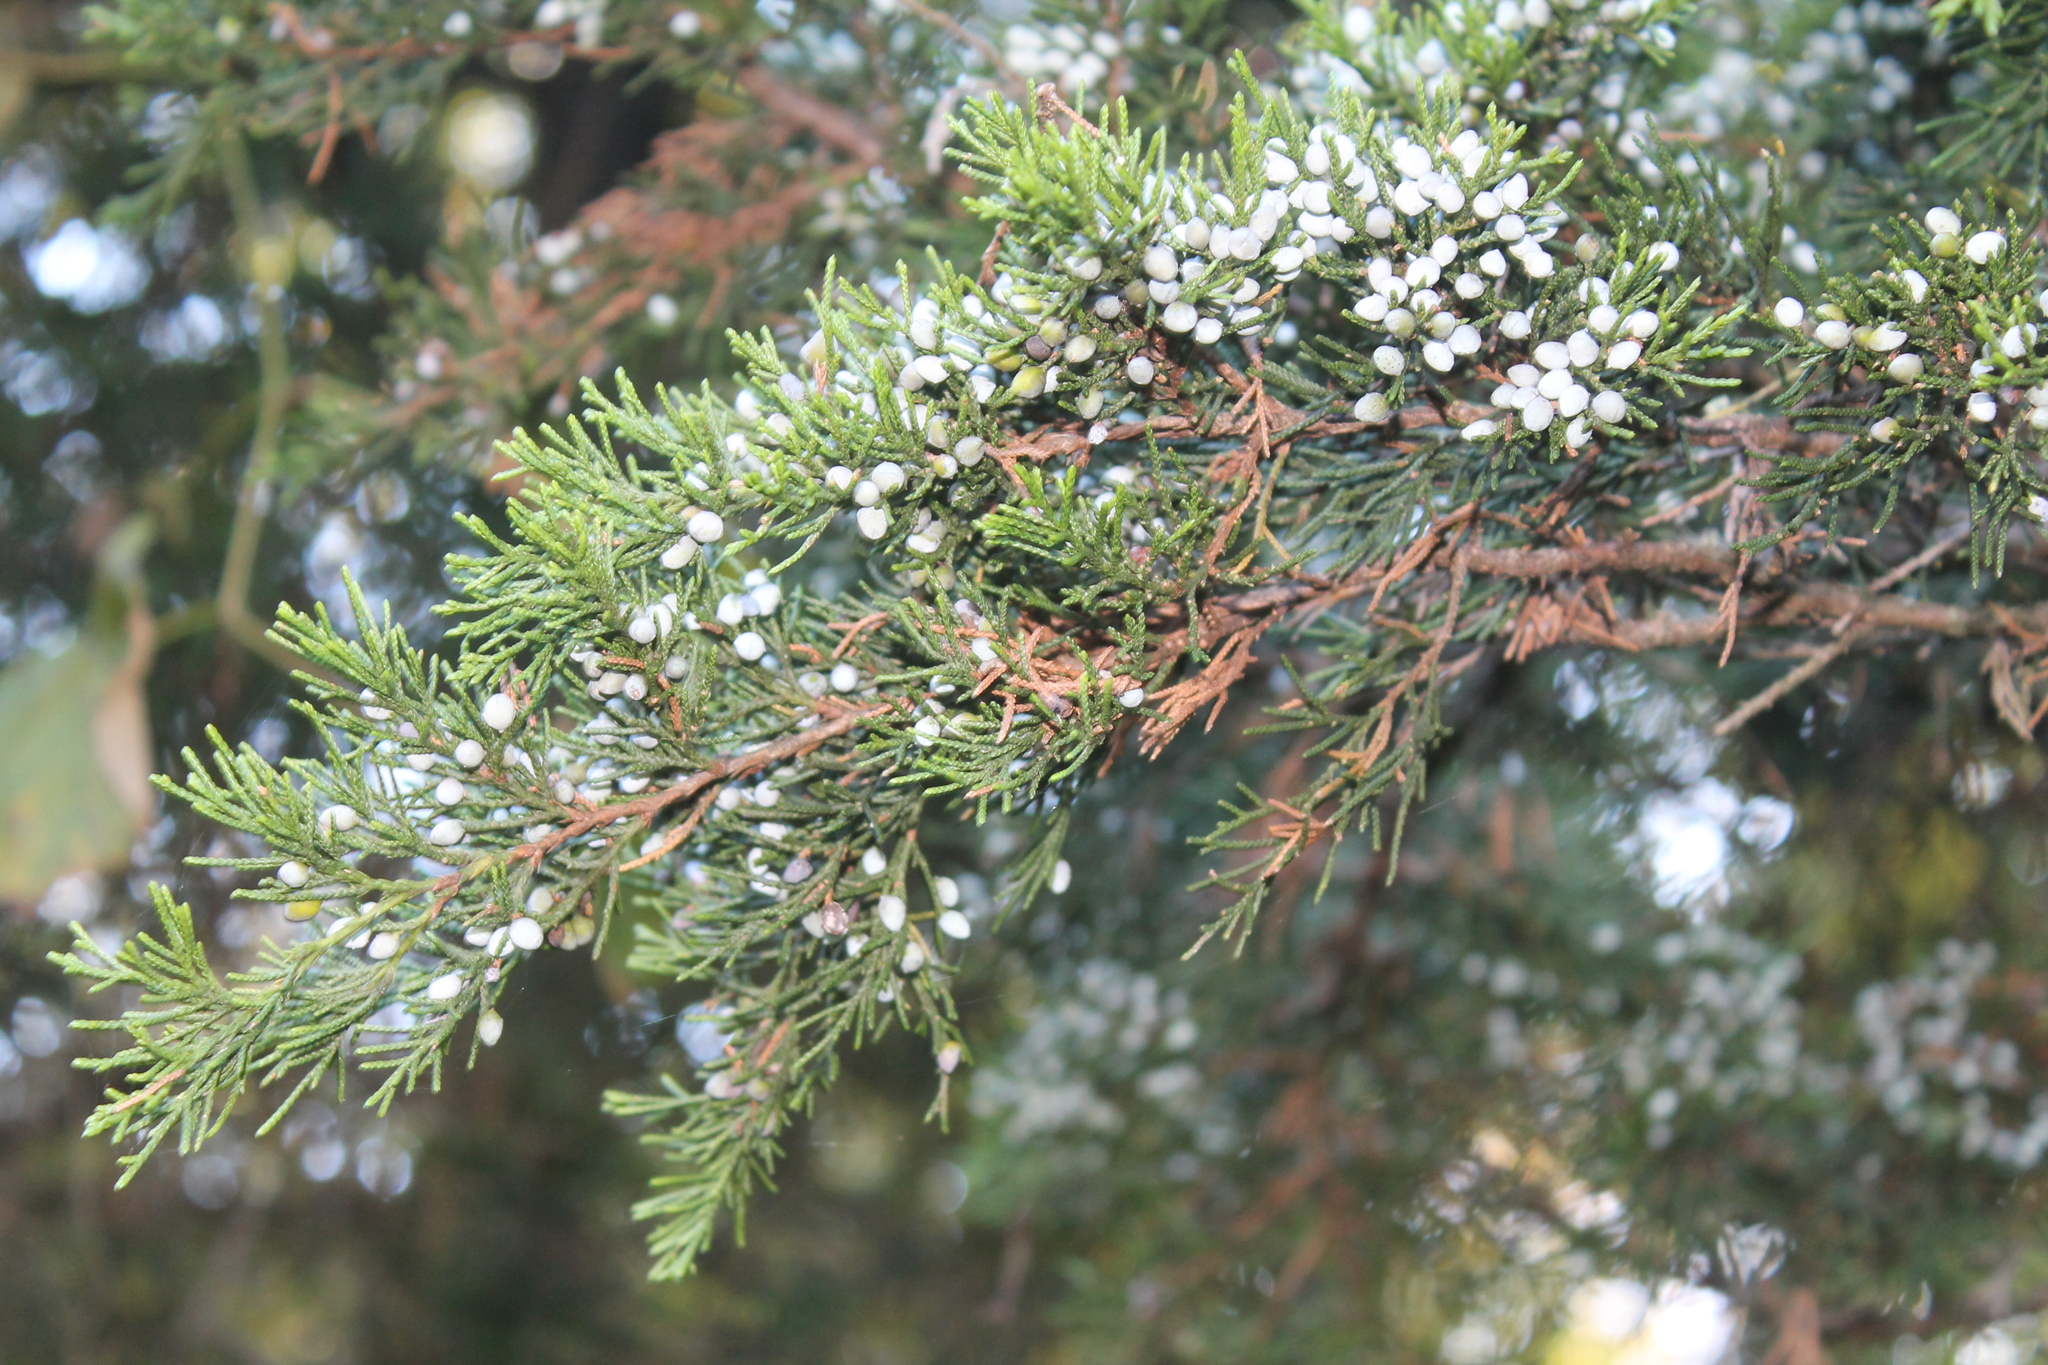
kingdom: Plantae
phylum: Tracheophyta
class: Pinopsida
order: Pinales
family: Cupressaceae
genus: Juniperus
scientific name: Juniperus virginiana
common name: Red juniper
